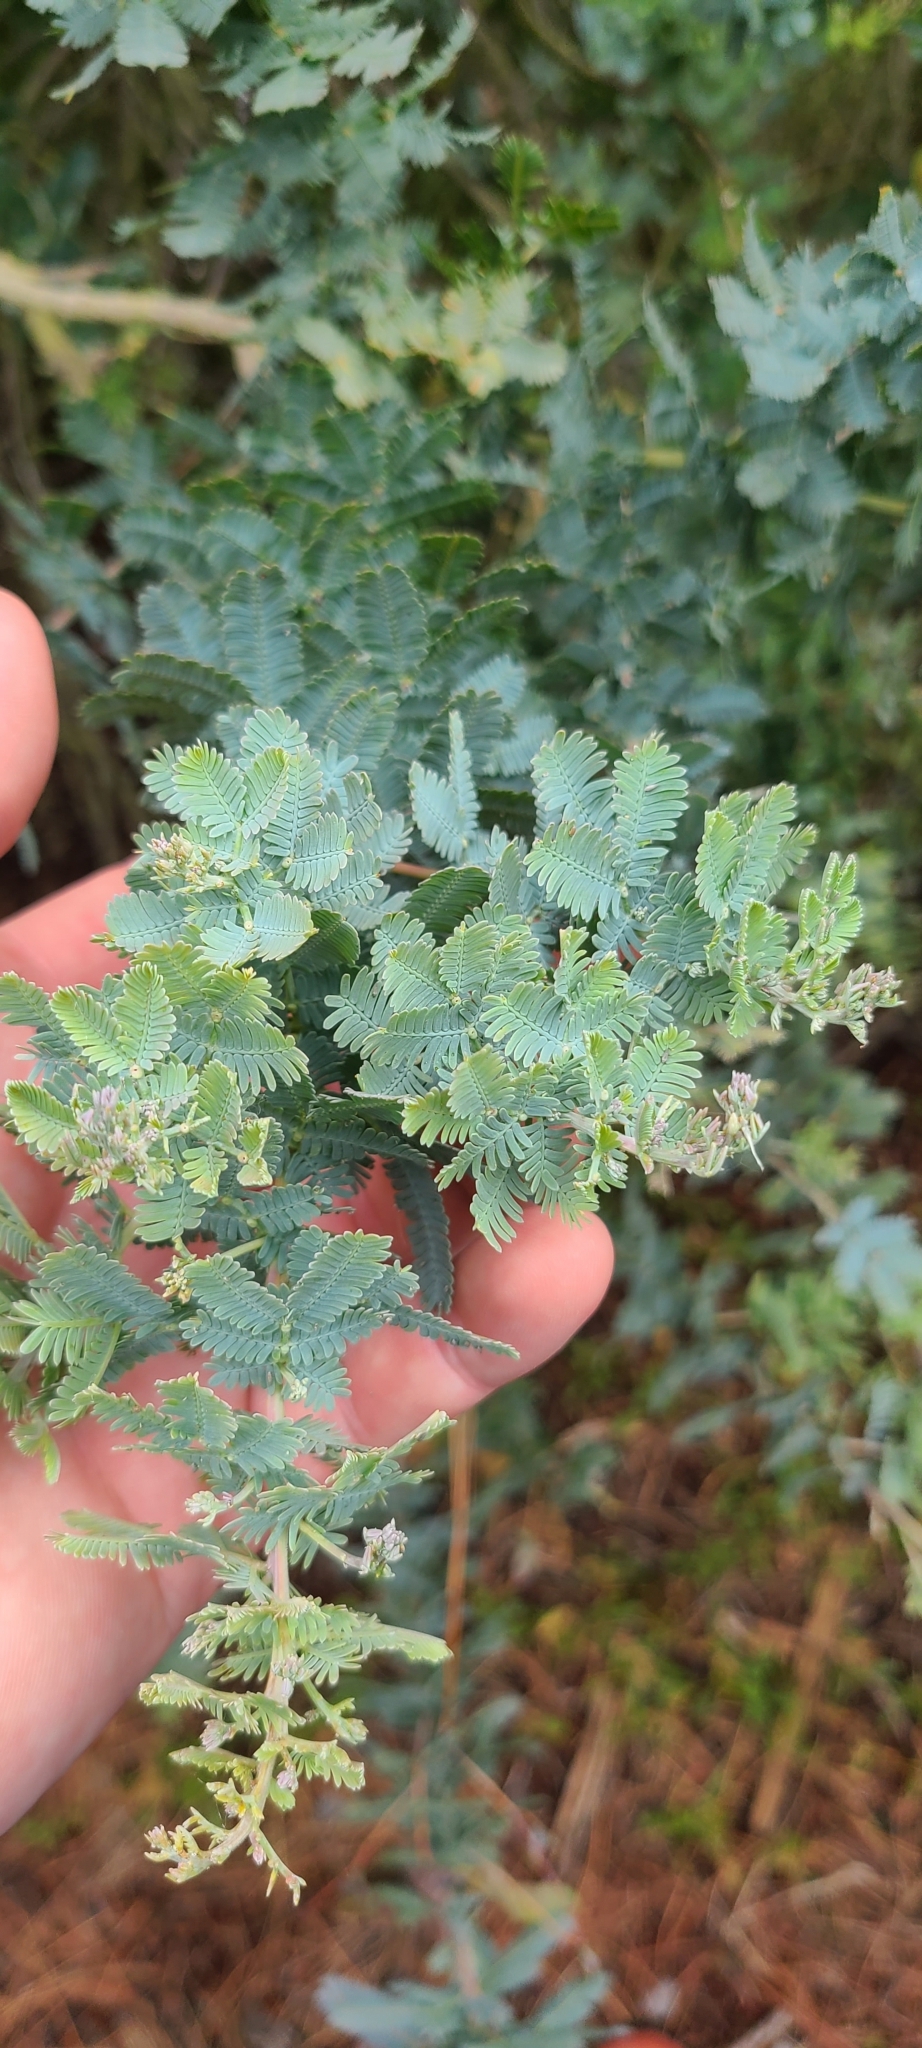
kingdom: Plantae
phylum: Tracheophyta
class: Magnoliopsida
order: Fabales
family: Fabaceae
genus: Acacia
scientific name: Acacia baileyana
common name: Cootamundra wattle
